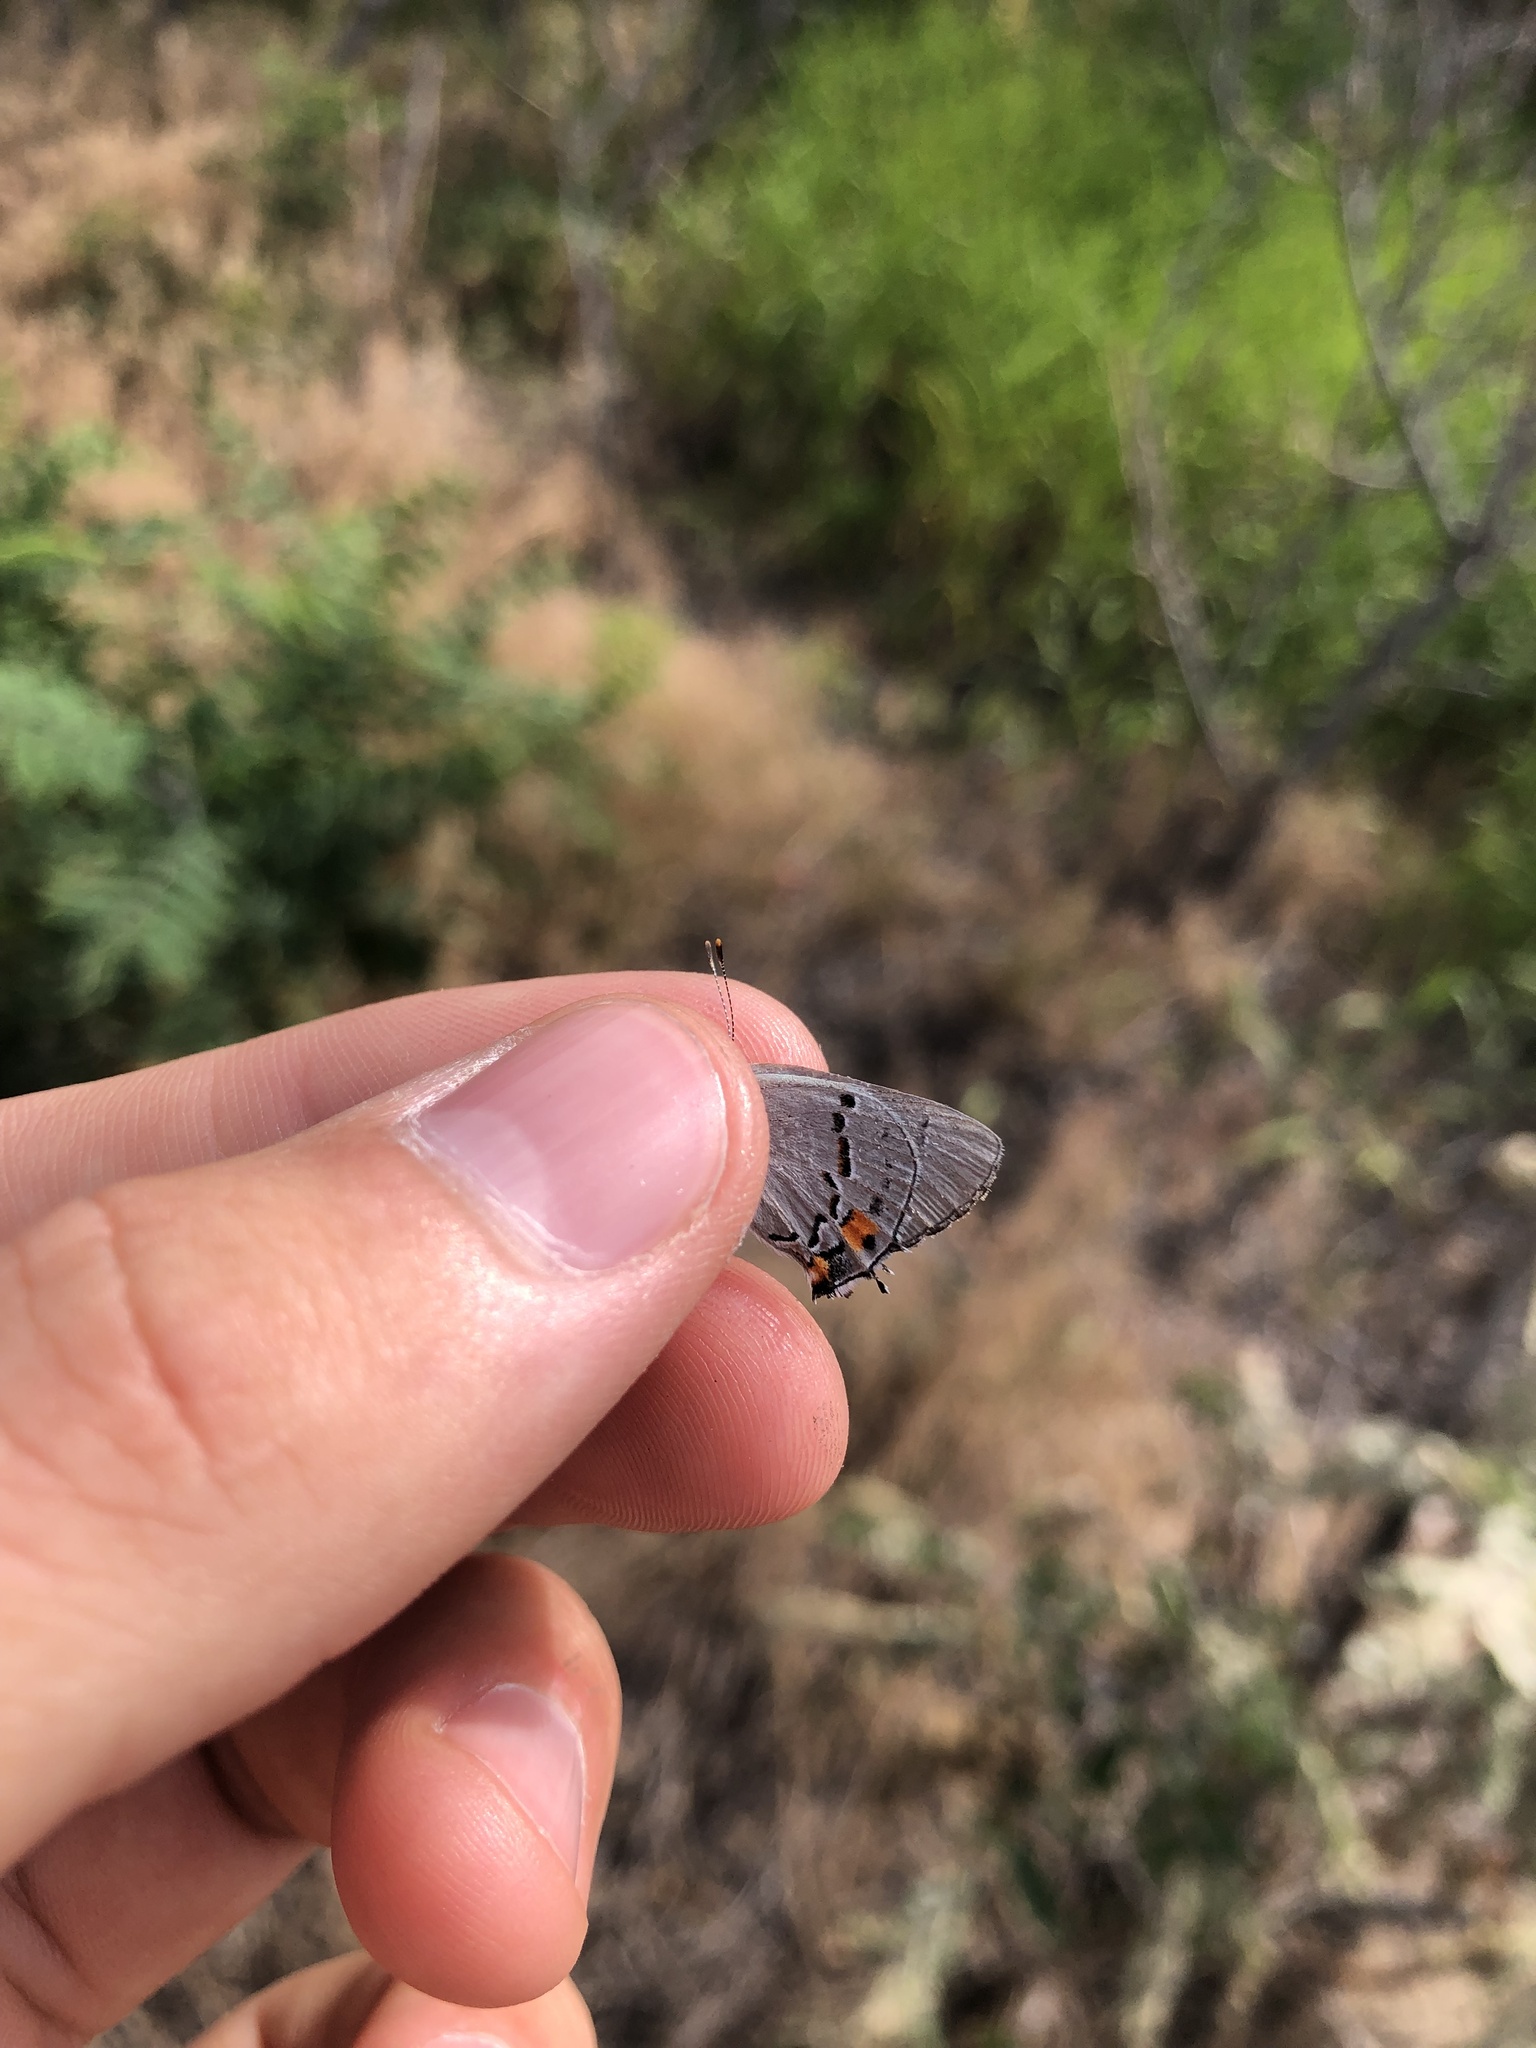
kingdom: Animalia
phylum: Arthropoda
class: Insecta
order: Lepidoptera
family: Lycaenidae
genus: Strymon
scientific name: Strymon melinus
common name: Gray hairstreak
